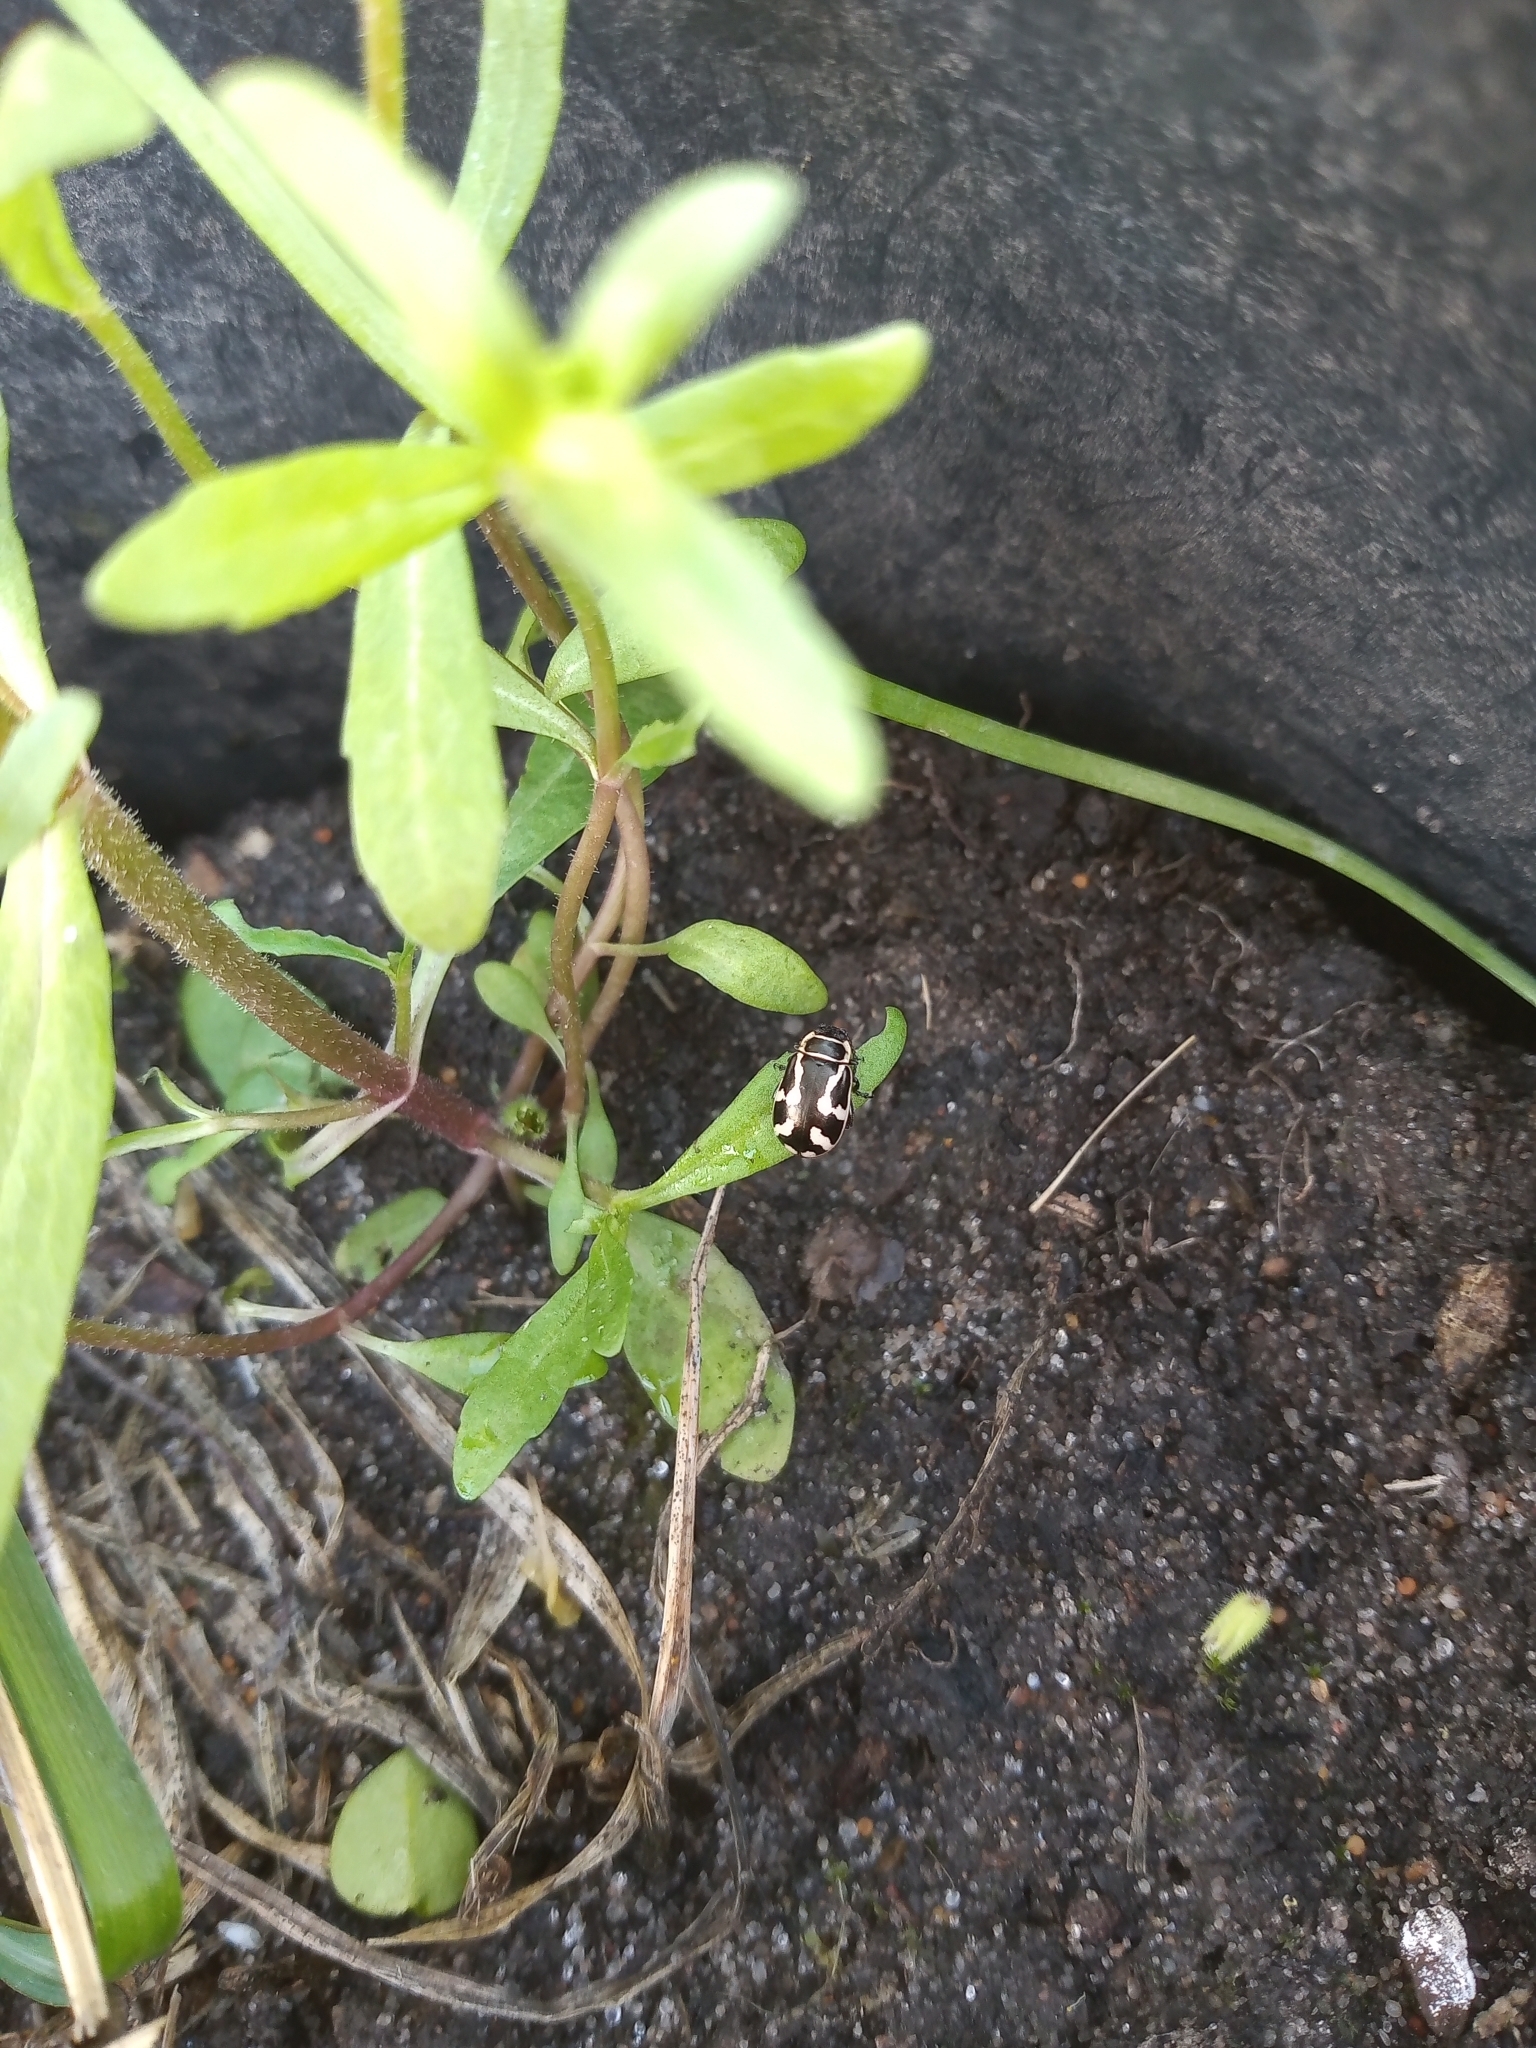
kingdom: Animalia
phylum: Arthropoda
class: Insecta
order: Coleoptera
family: Chrysomelidae
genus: Kuschelina
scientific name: Kuschelina
